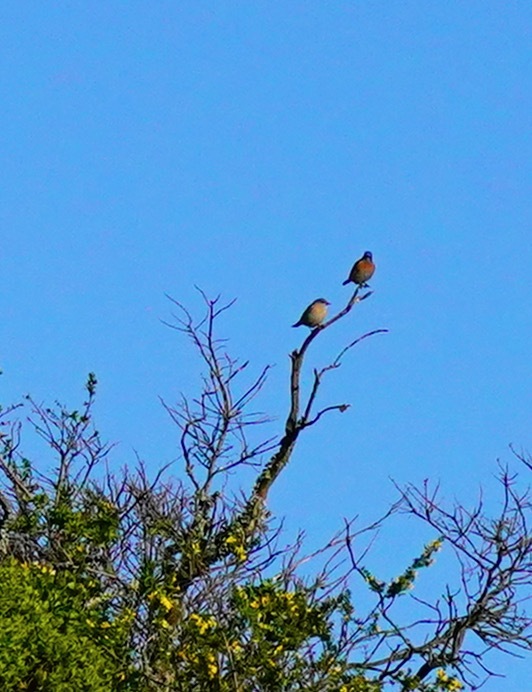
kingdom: Animalia
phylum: Chordata
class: Aves
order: Passeriformes
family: Turdidae
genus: Sialia
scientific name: Sialia mexicana
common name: Western bluebird
